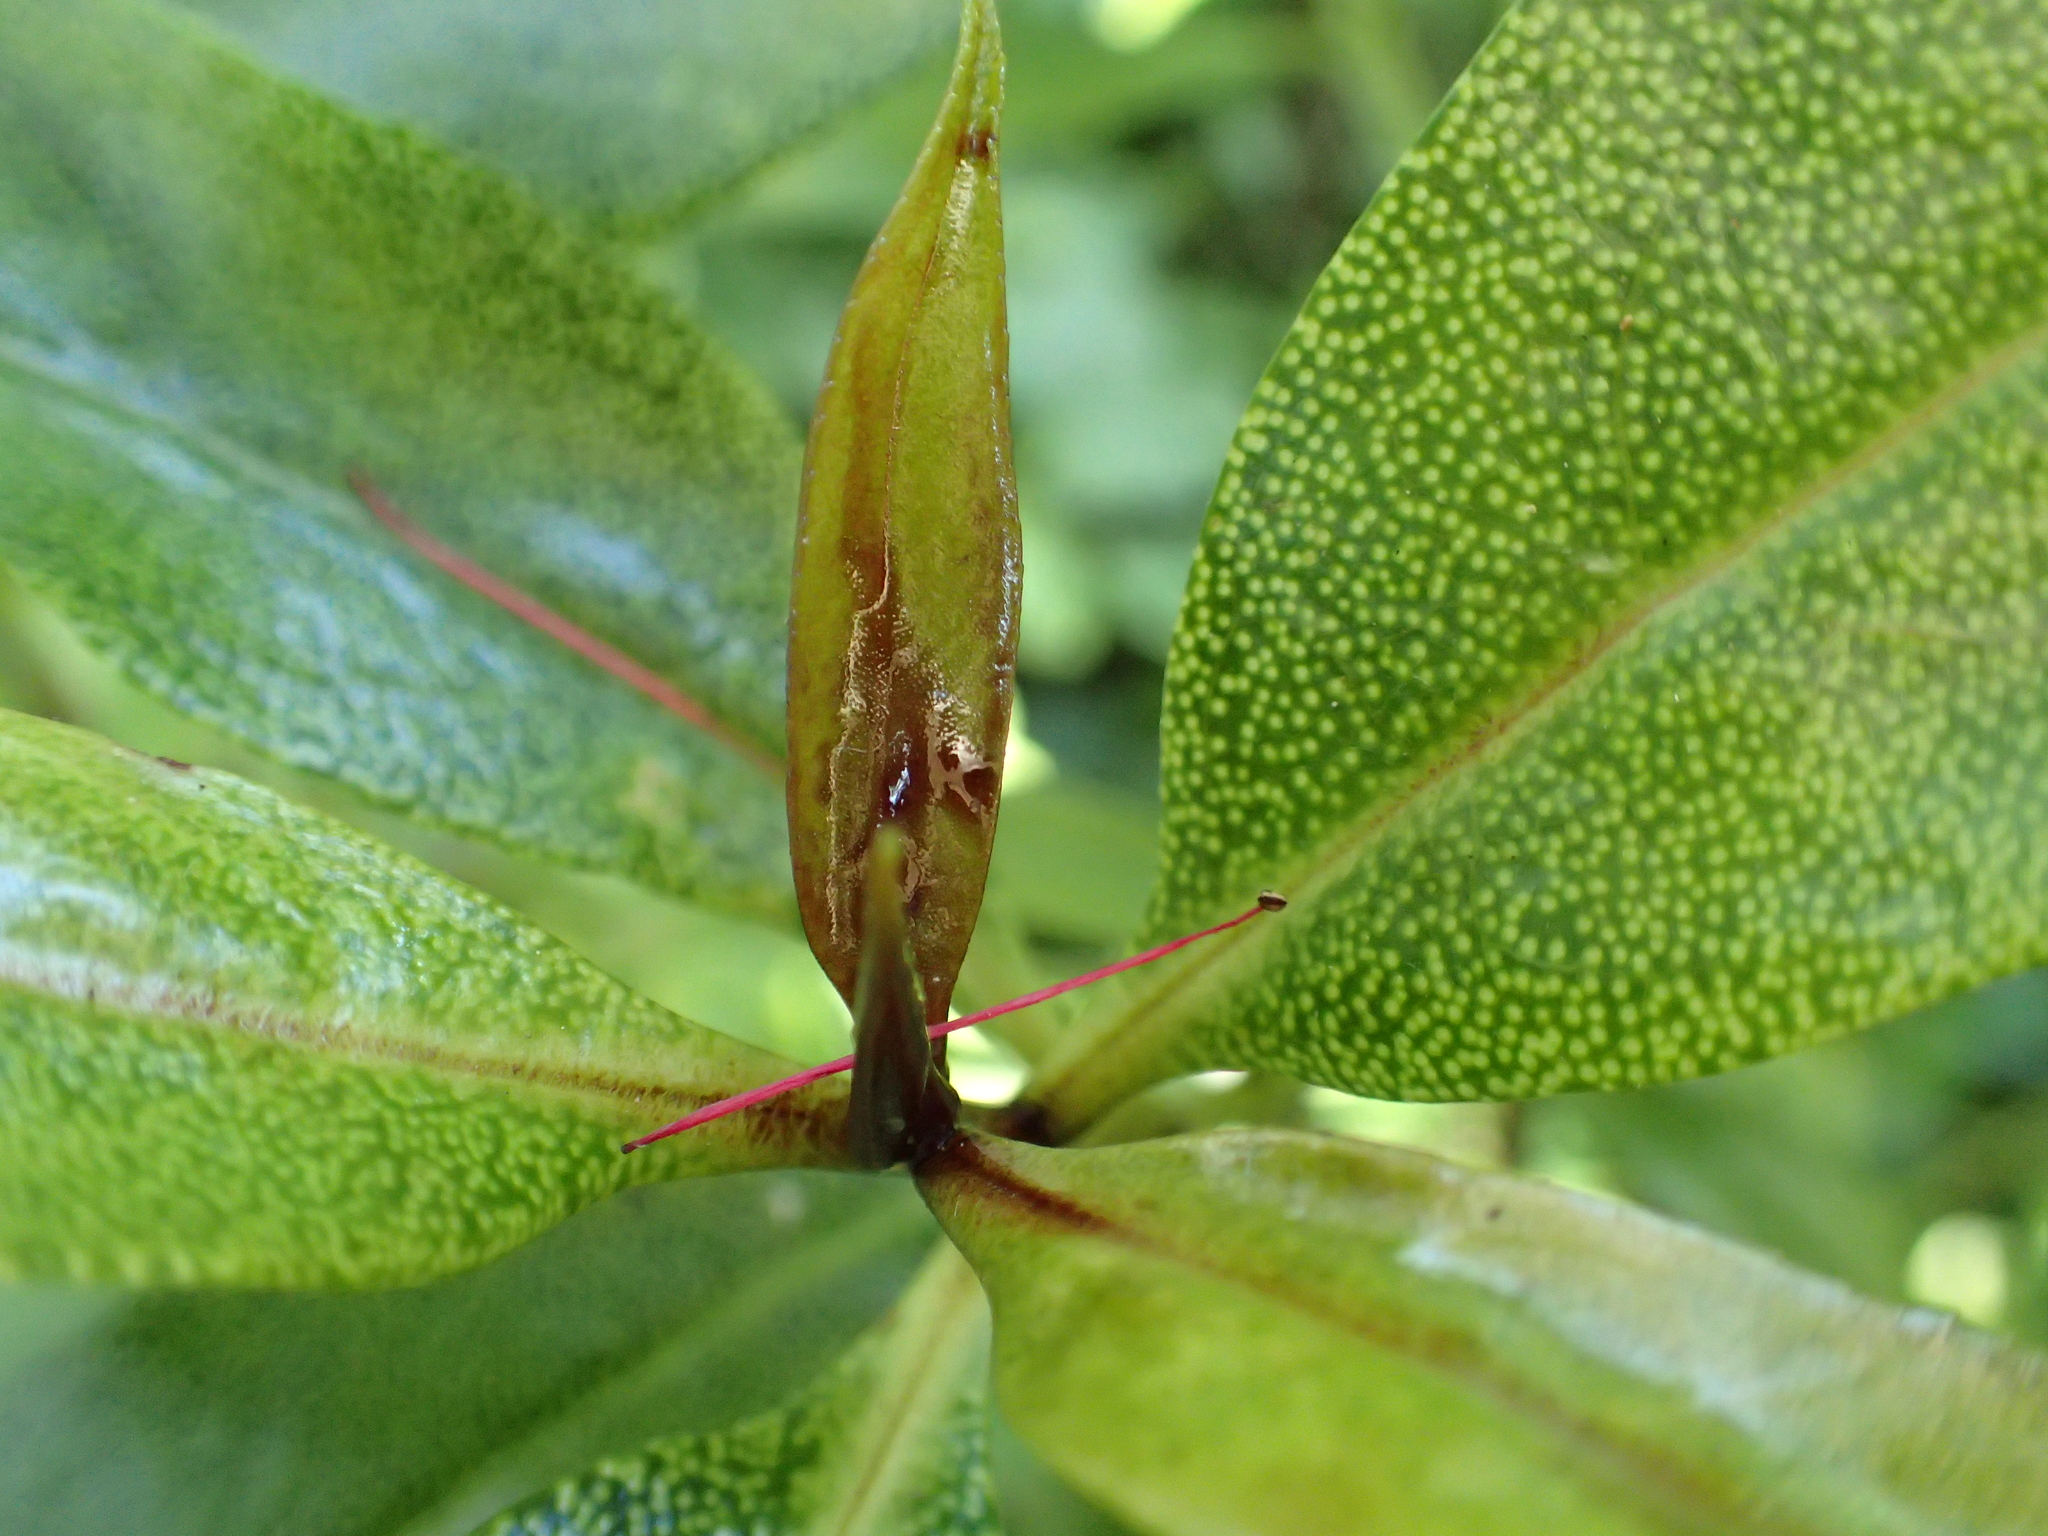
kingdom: Plantae
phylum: Tracheophyta
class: Magnoliopsida
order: Lamiales
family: Scrophulariaceae
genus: Myoporum
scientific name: Myoporum laetum
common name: Ngaio tree
